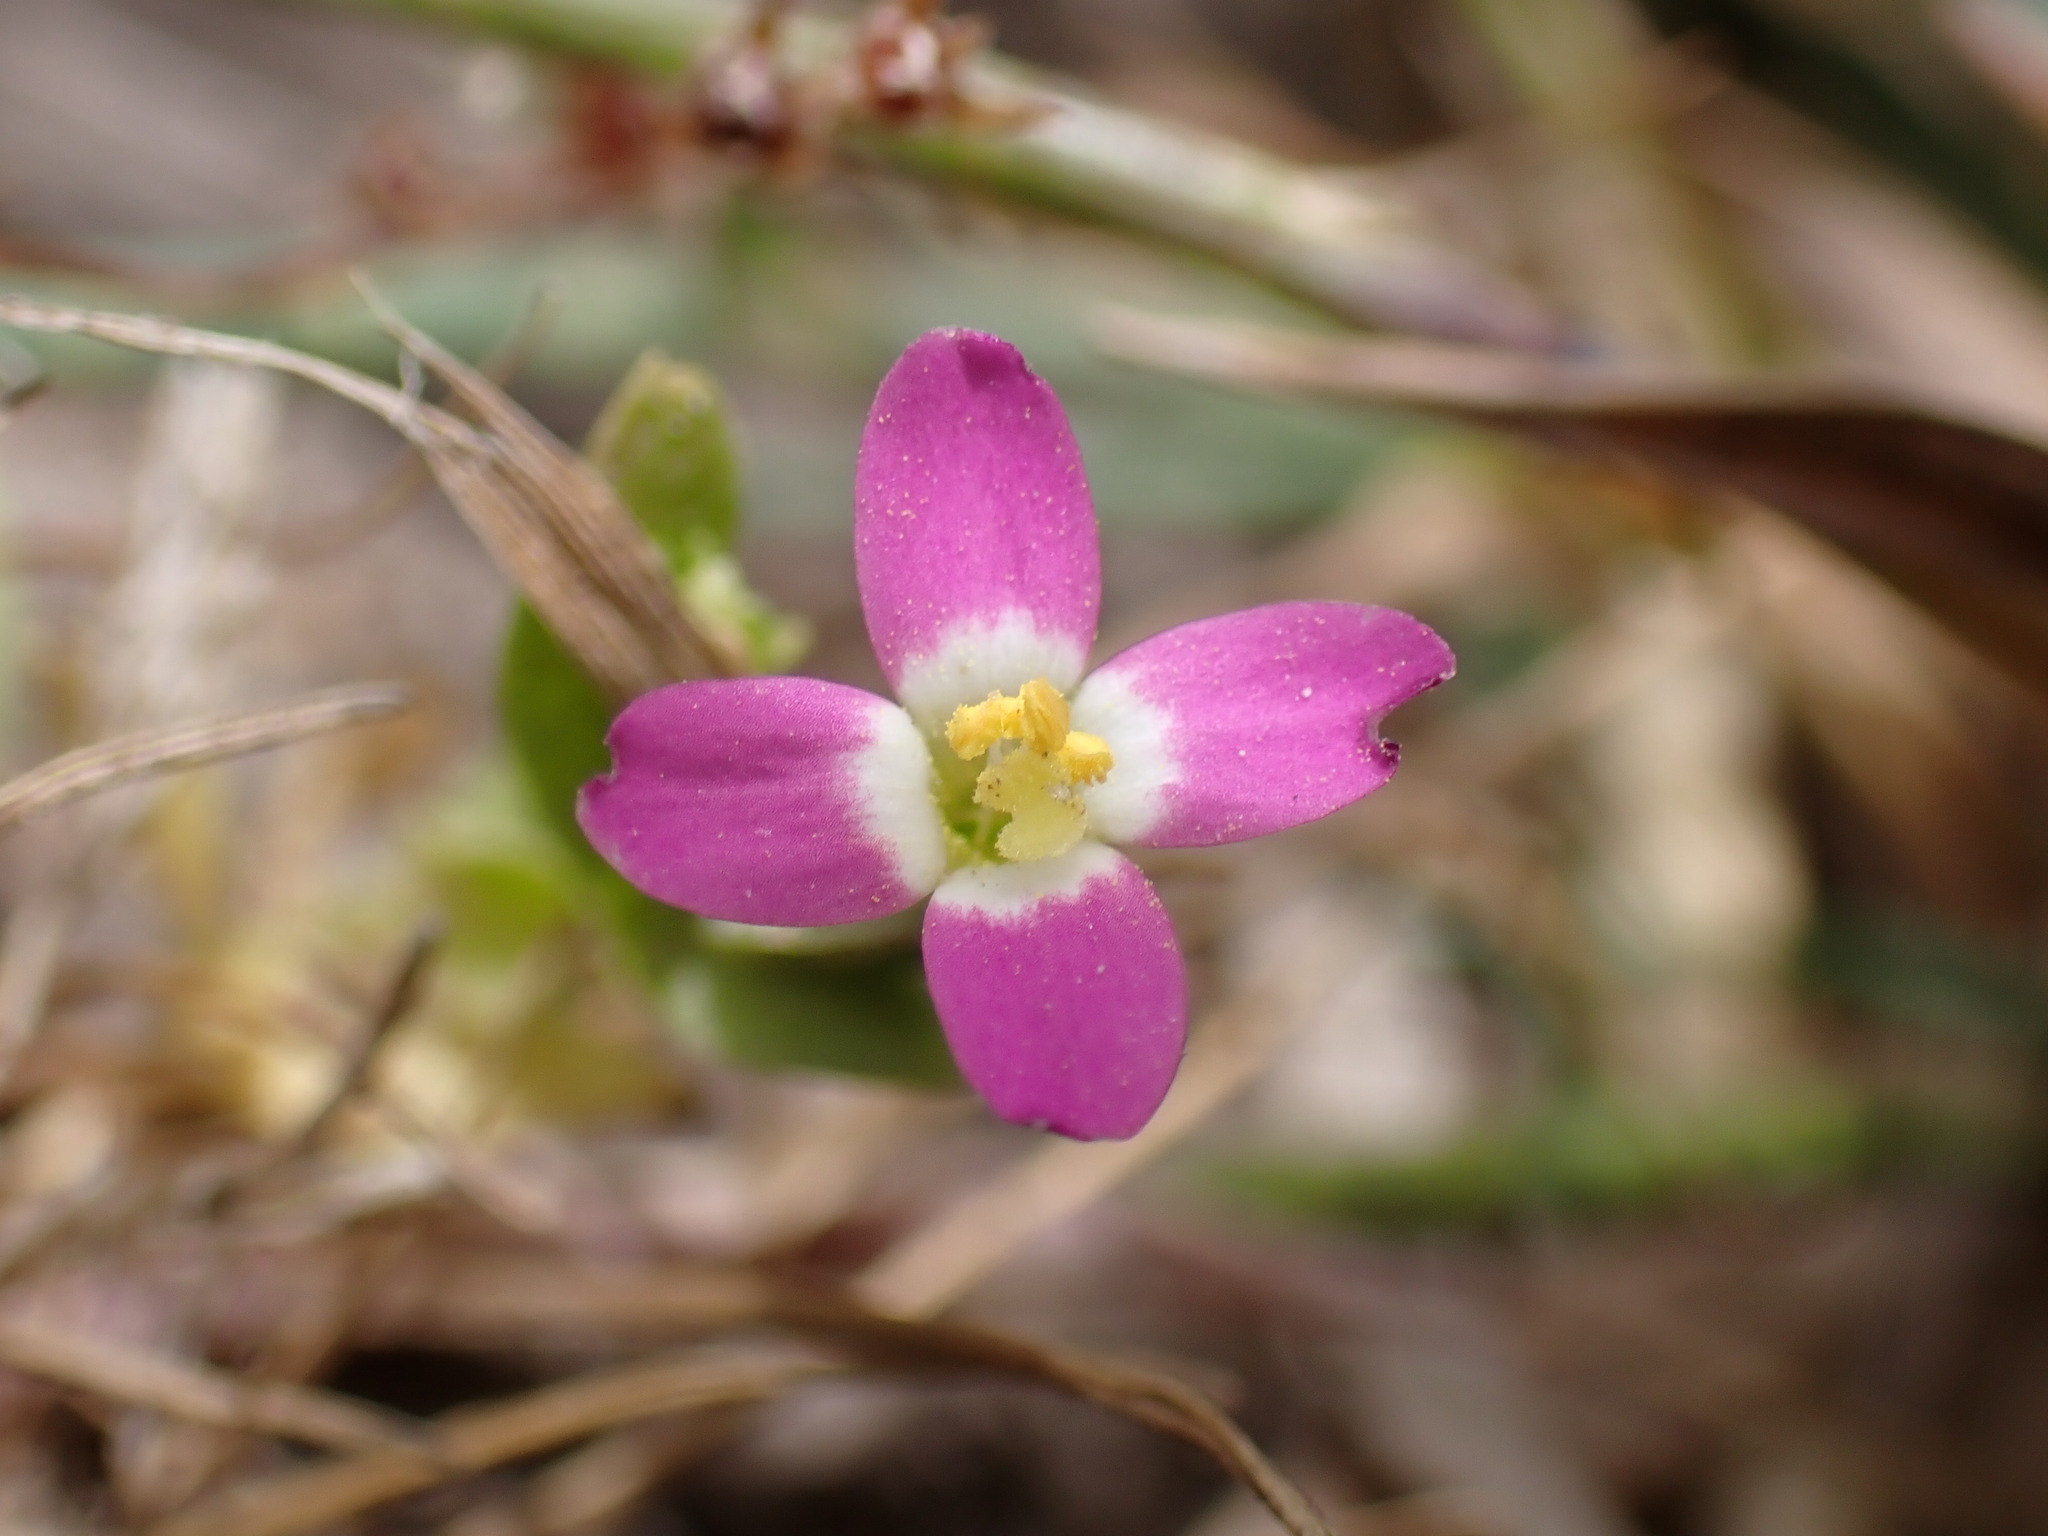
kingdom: Plantae
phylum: Tracheophyta
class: Magnoliopsida
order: Gentianales
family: Gentianaceae
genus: Zeltnera
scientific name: Zeltnera davyi
